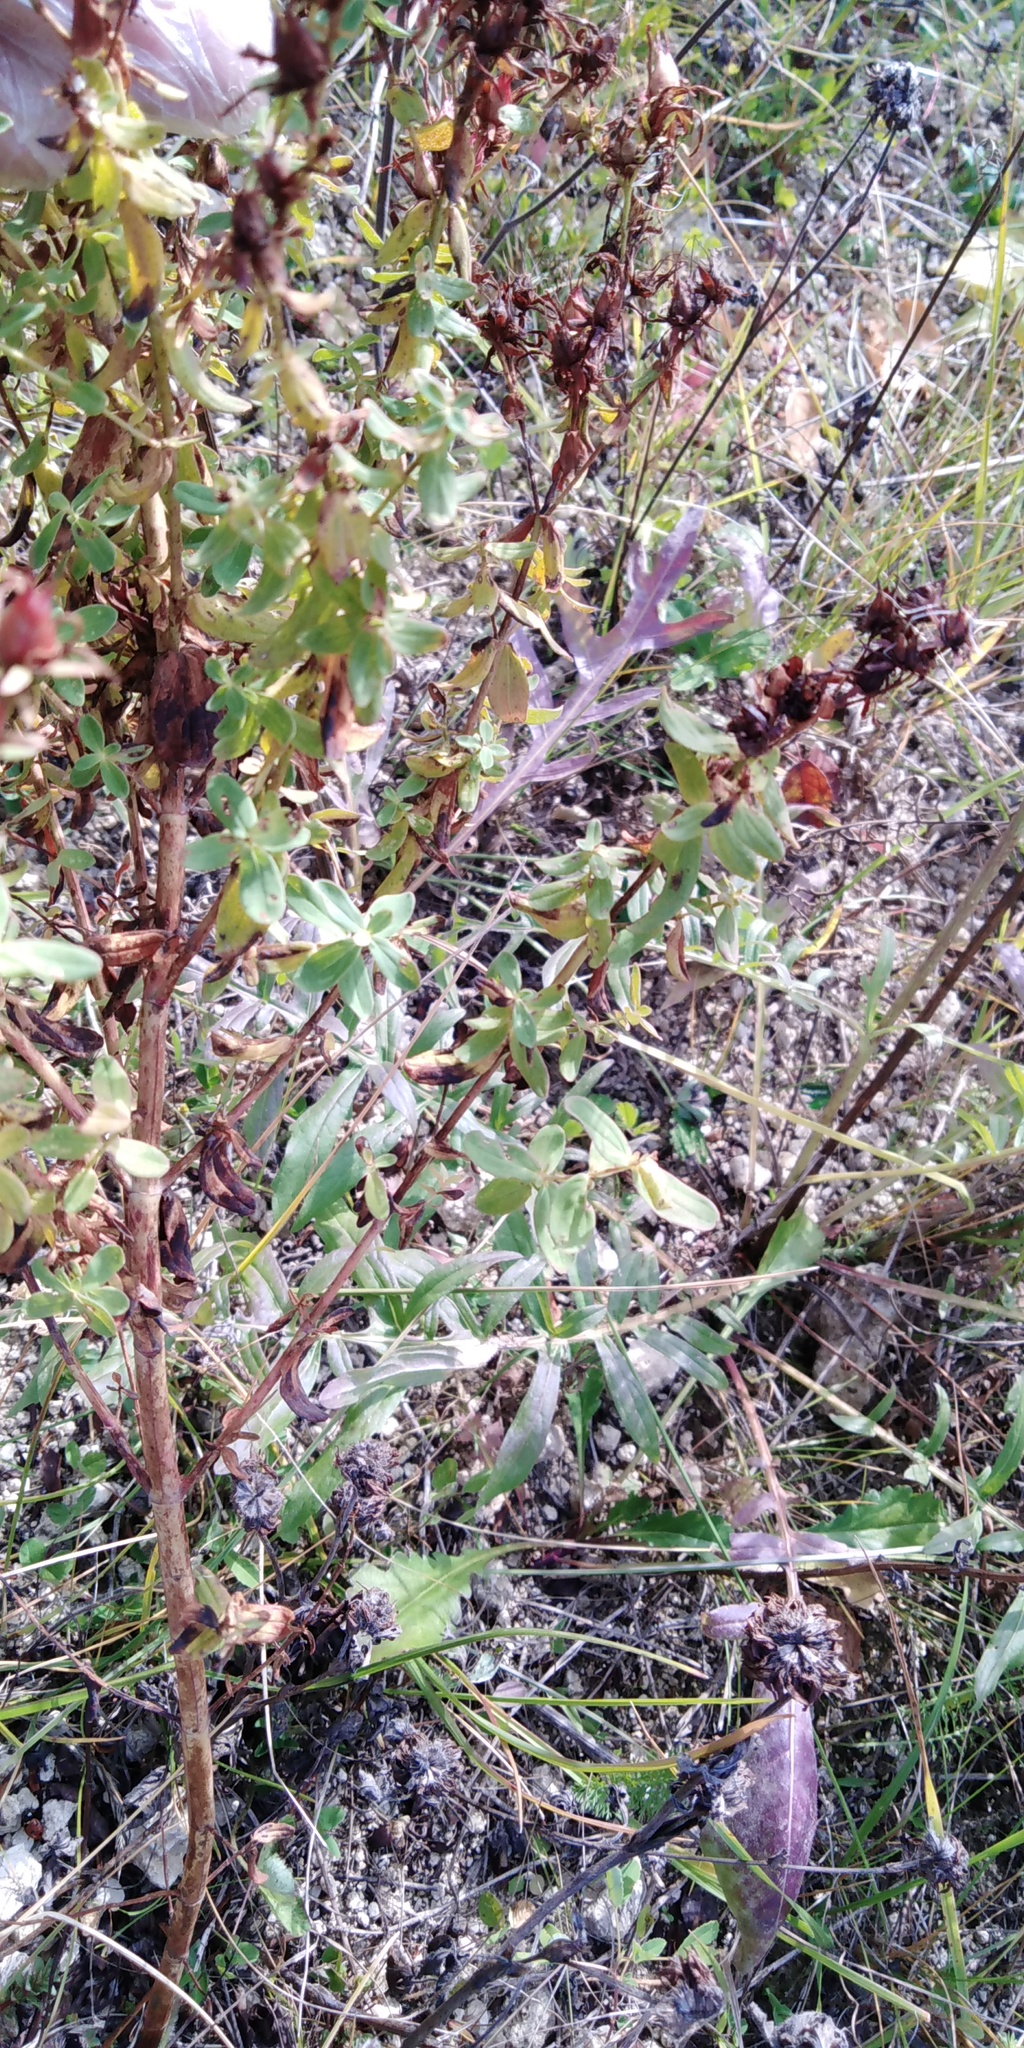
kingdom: Plantae
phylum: Tracheophyta
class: Magnoliopsida
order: Malpighiales
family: Hypericaceae
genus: Hypericum
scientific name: Hypericum perforatum
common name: Common st. johnswort
